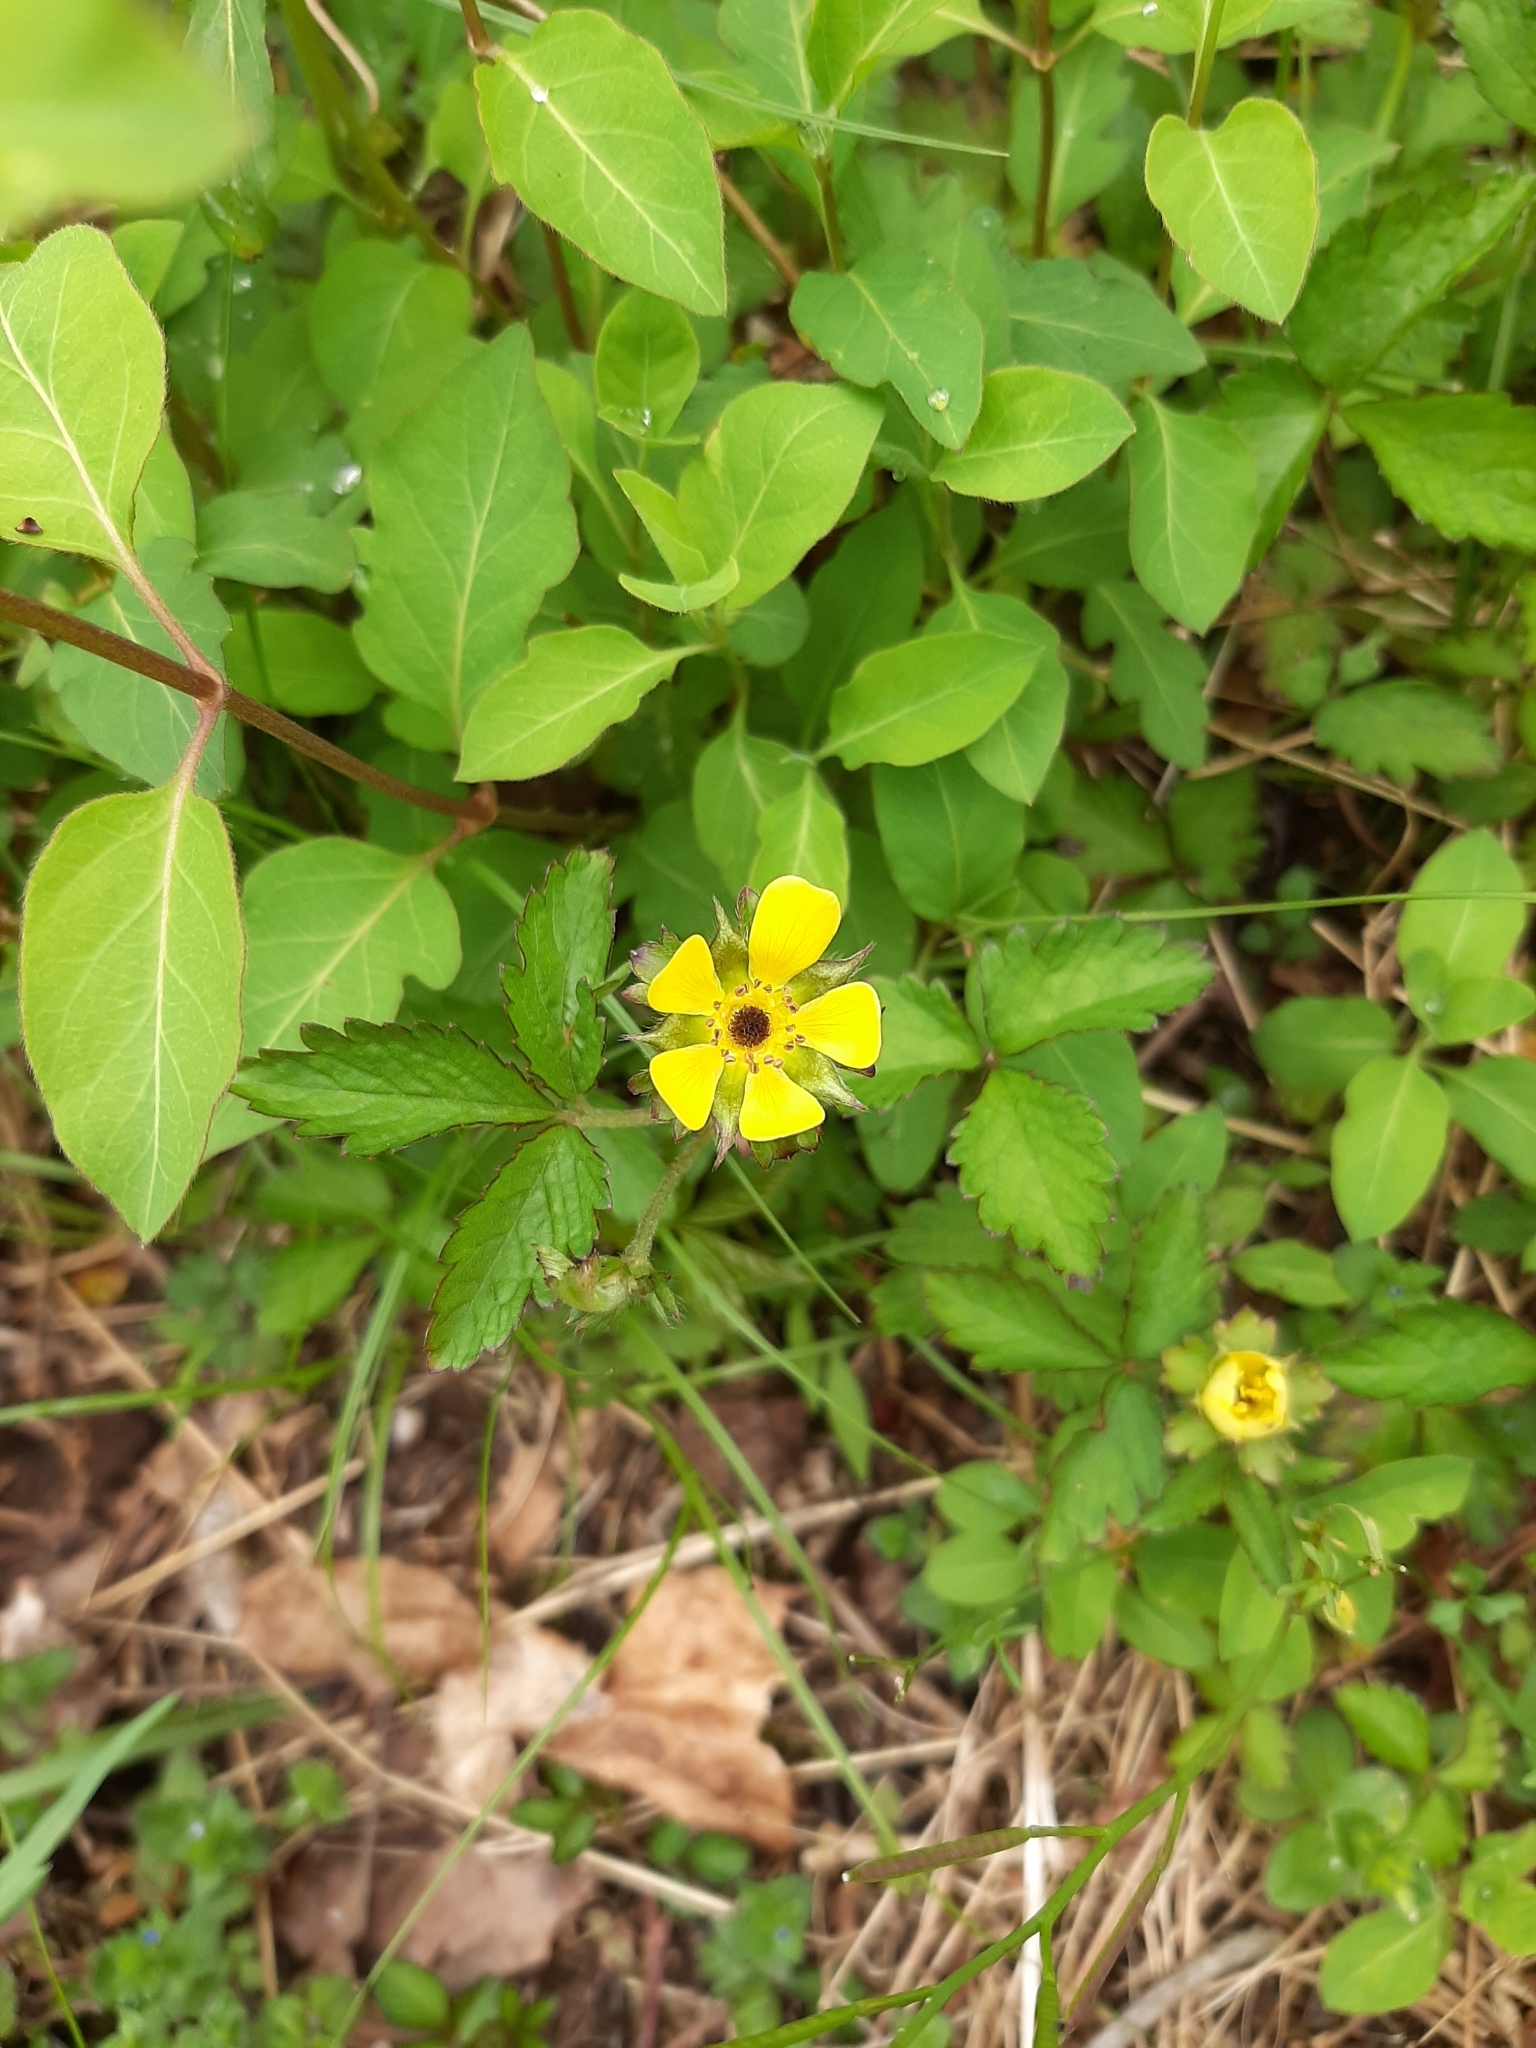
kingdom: Plantae
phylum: Tracheophyta
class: Magnoliopsida
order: Rosales
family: Rosaceae
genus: Potentilla
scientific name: Potentilla indica
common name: Yellow-flowered strawberry
